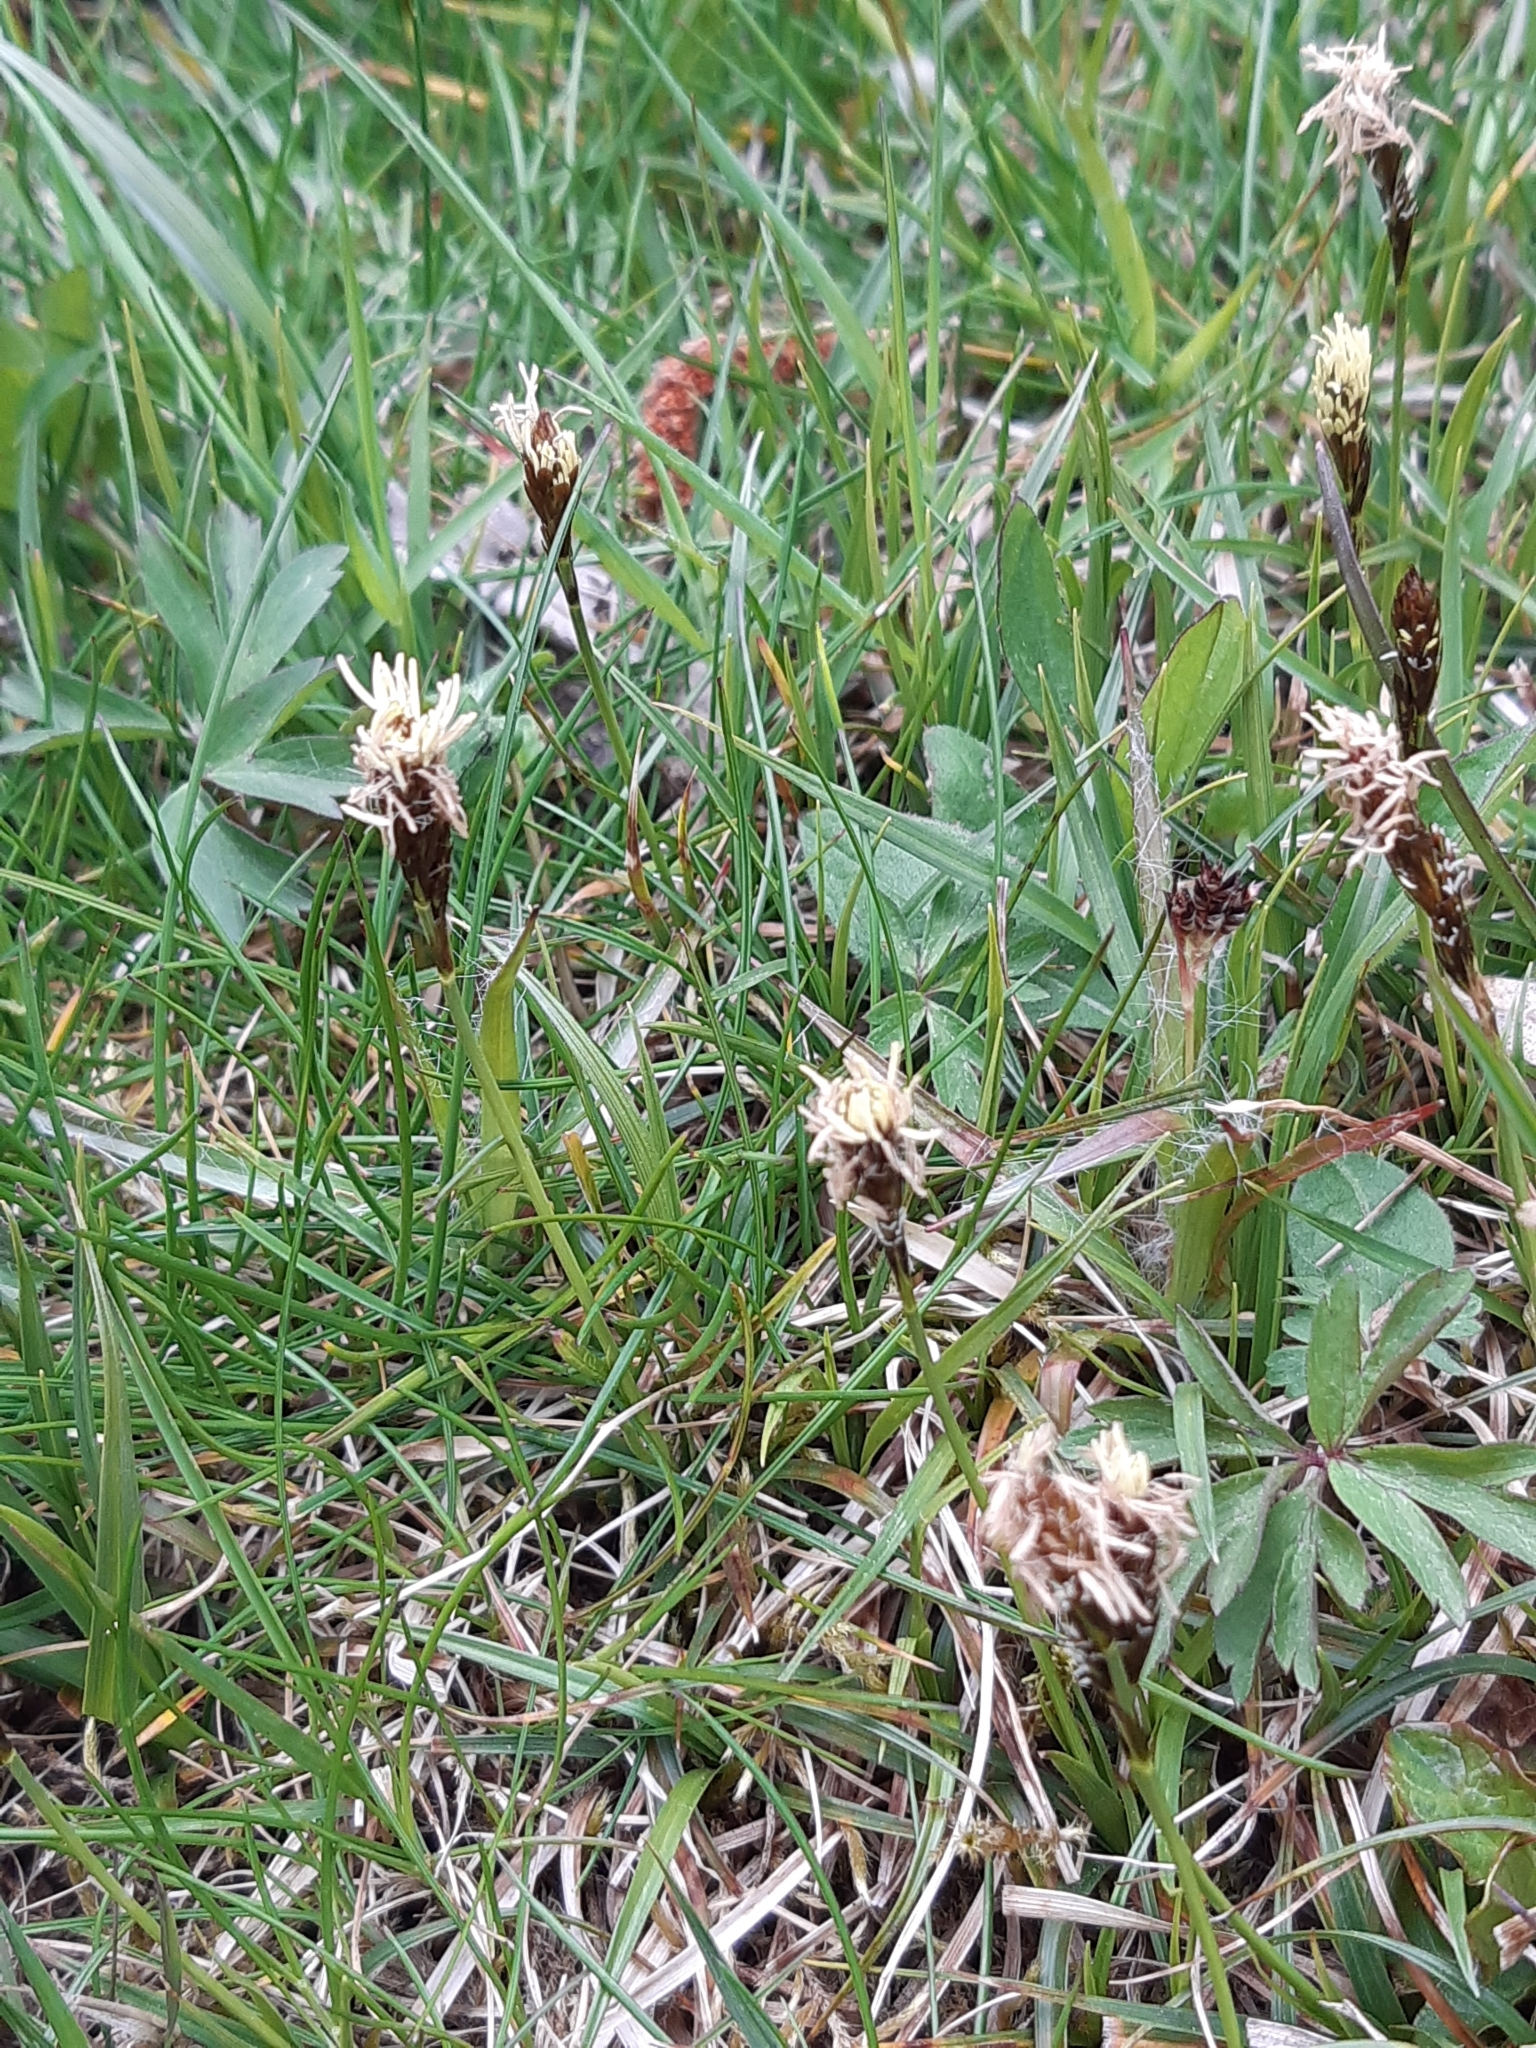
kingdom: Plantae
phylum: Tracheophyta
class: Liliopsida
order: Poales
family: Cyperaceae
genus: Carex
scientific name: Carex caryophyllea
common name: Spring sedge
